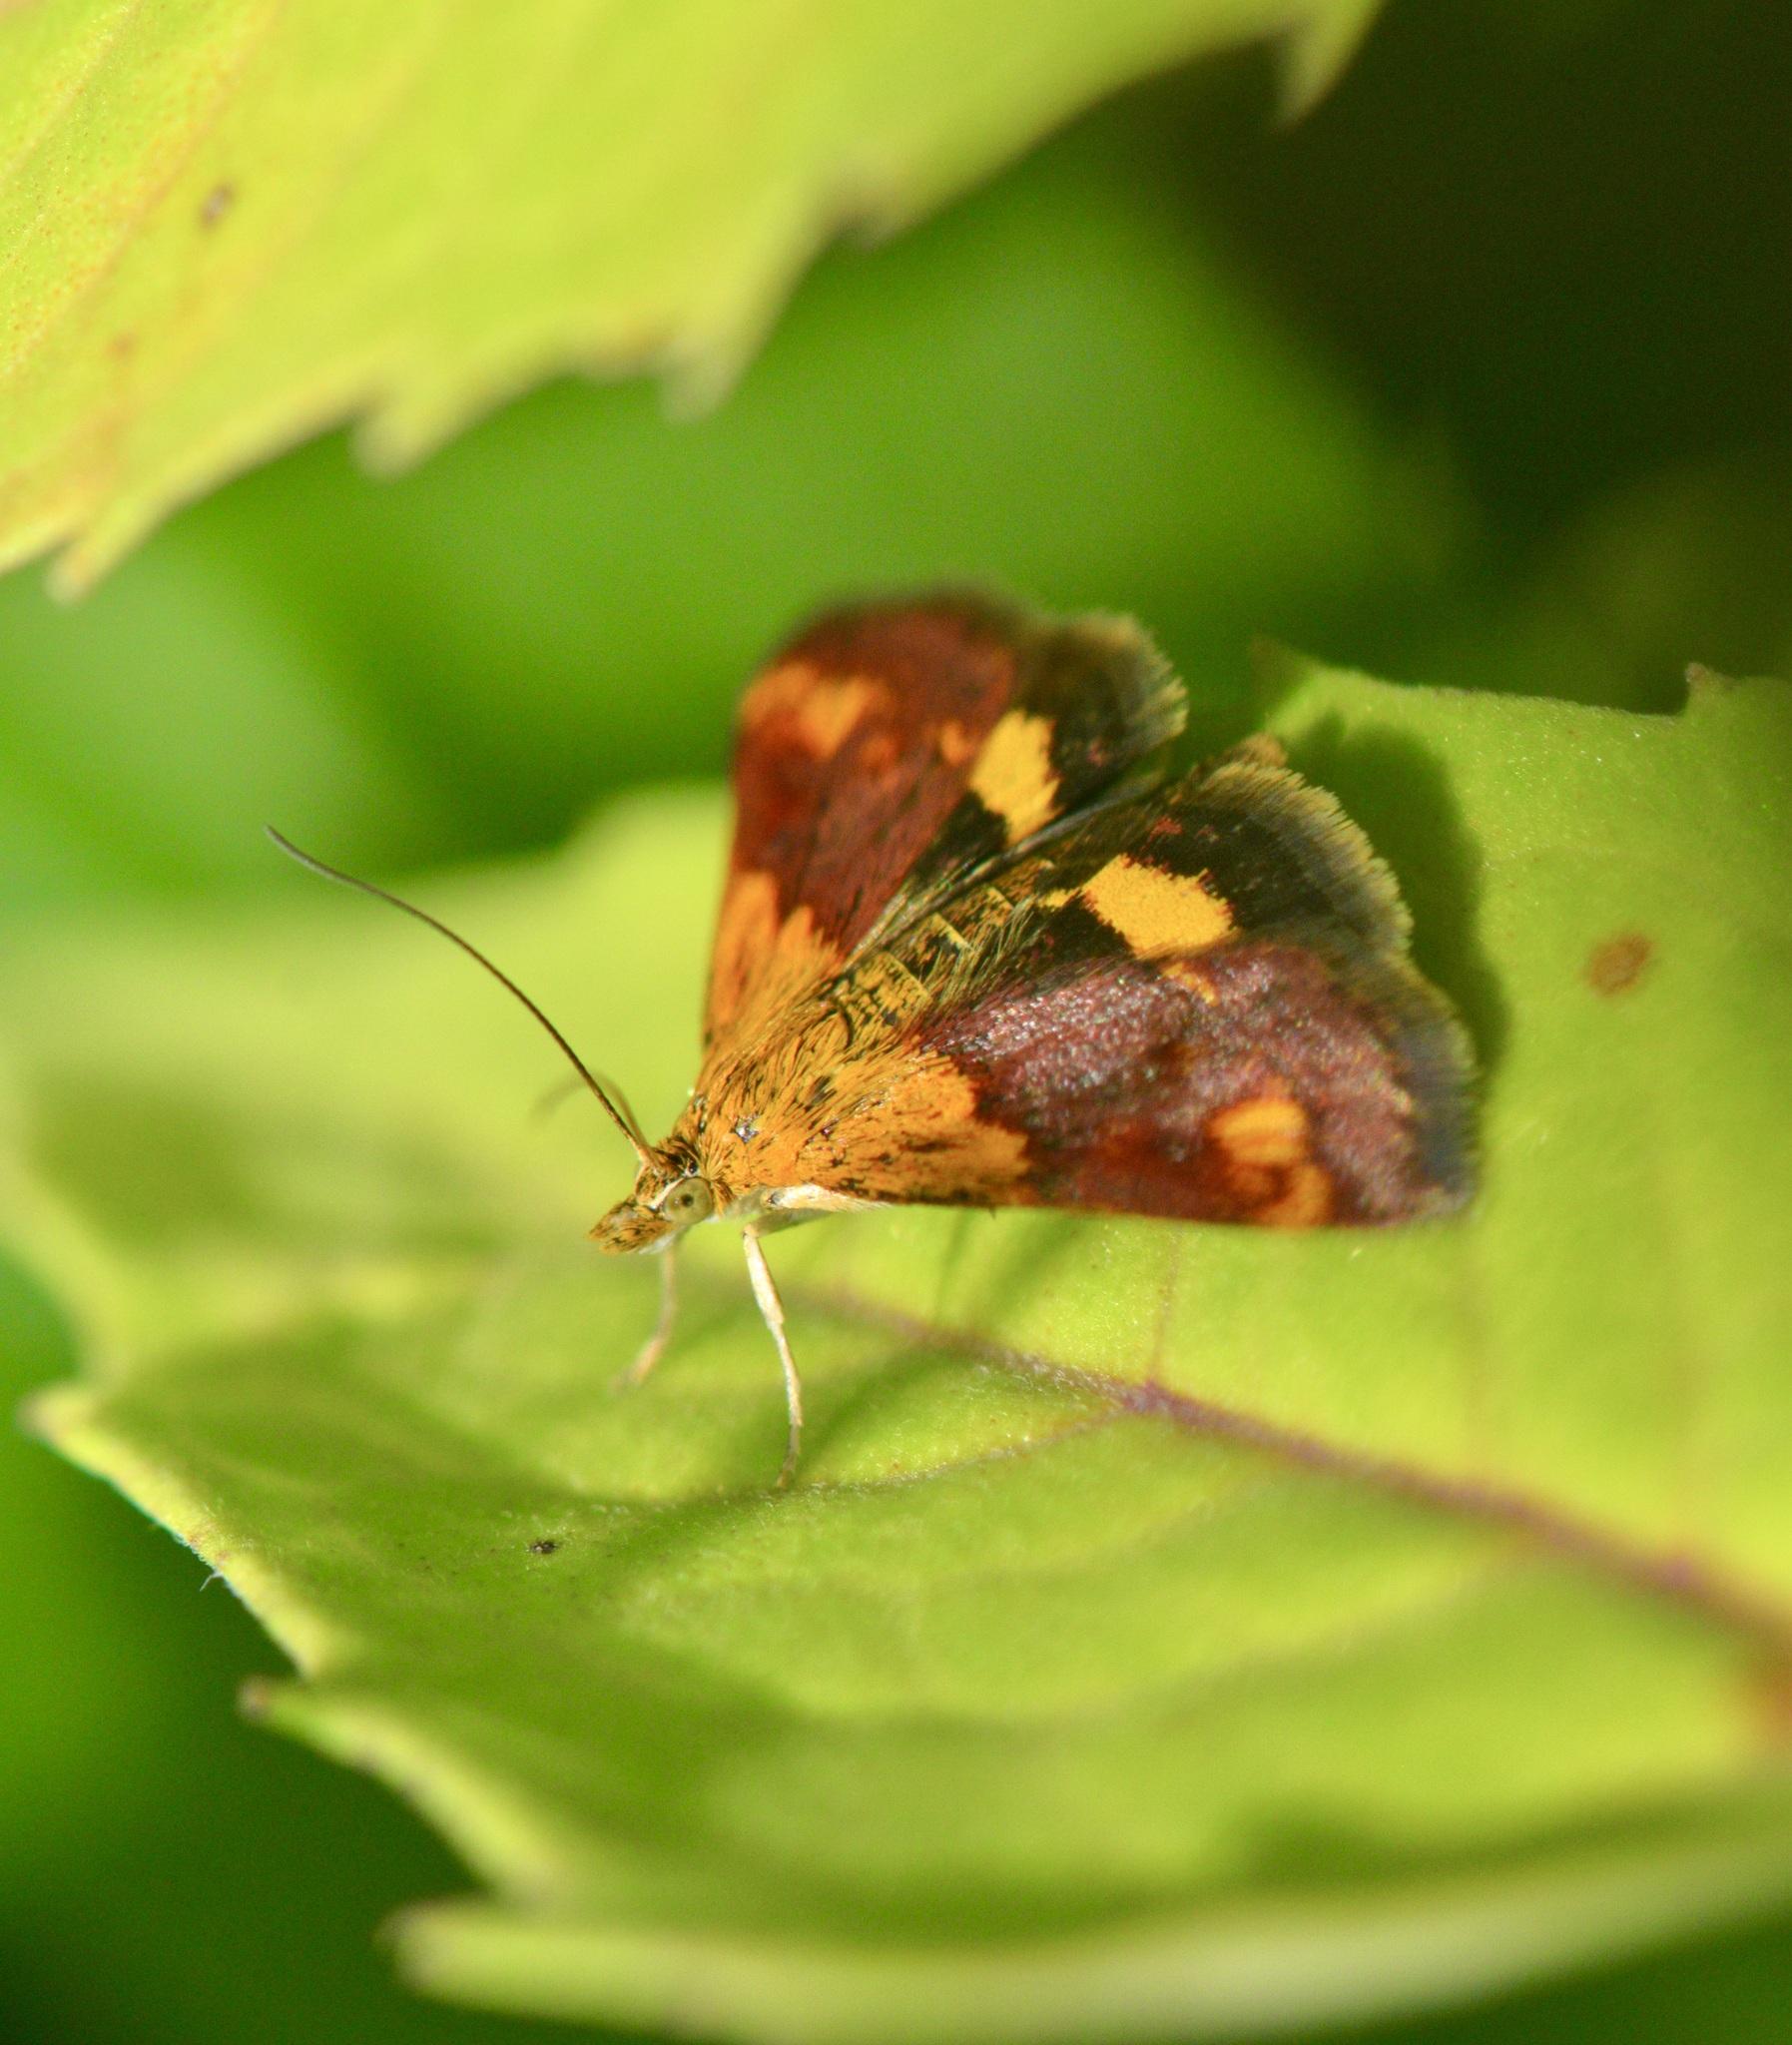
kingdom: Animalia
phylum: Arthropoda
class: Insecta
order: Lepidoptera
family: Crambidae
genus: Pyrausta
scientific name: Pyrausta orphisalis
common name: Orange mint moth
